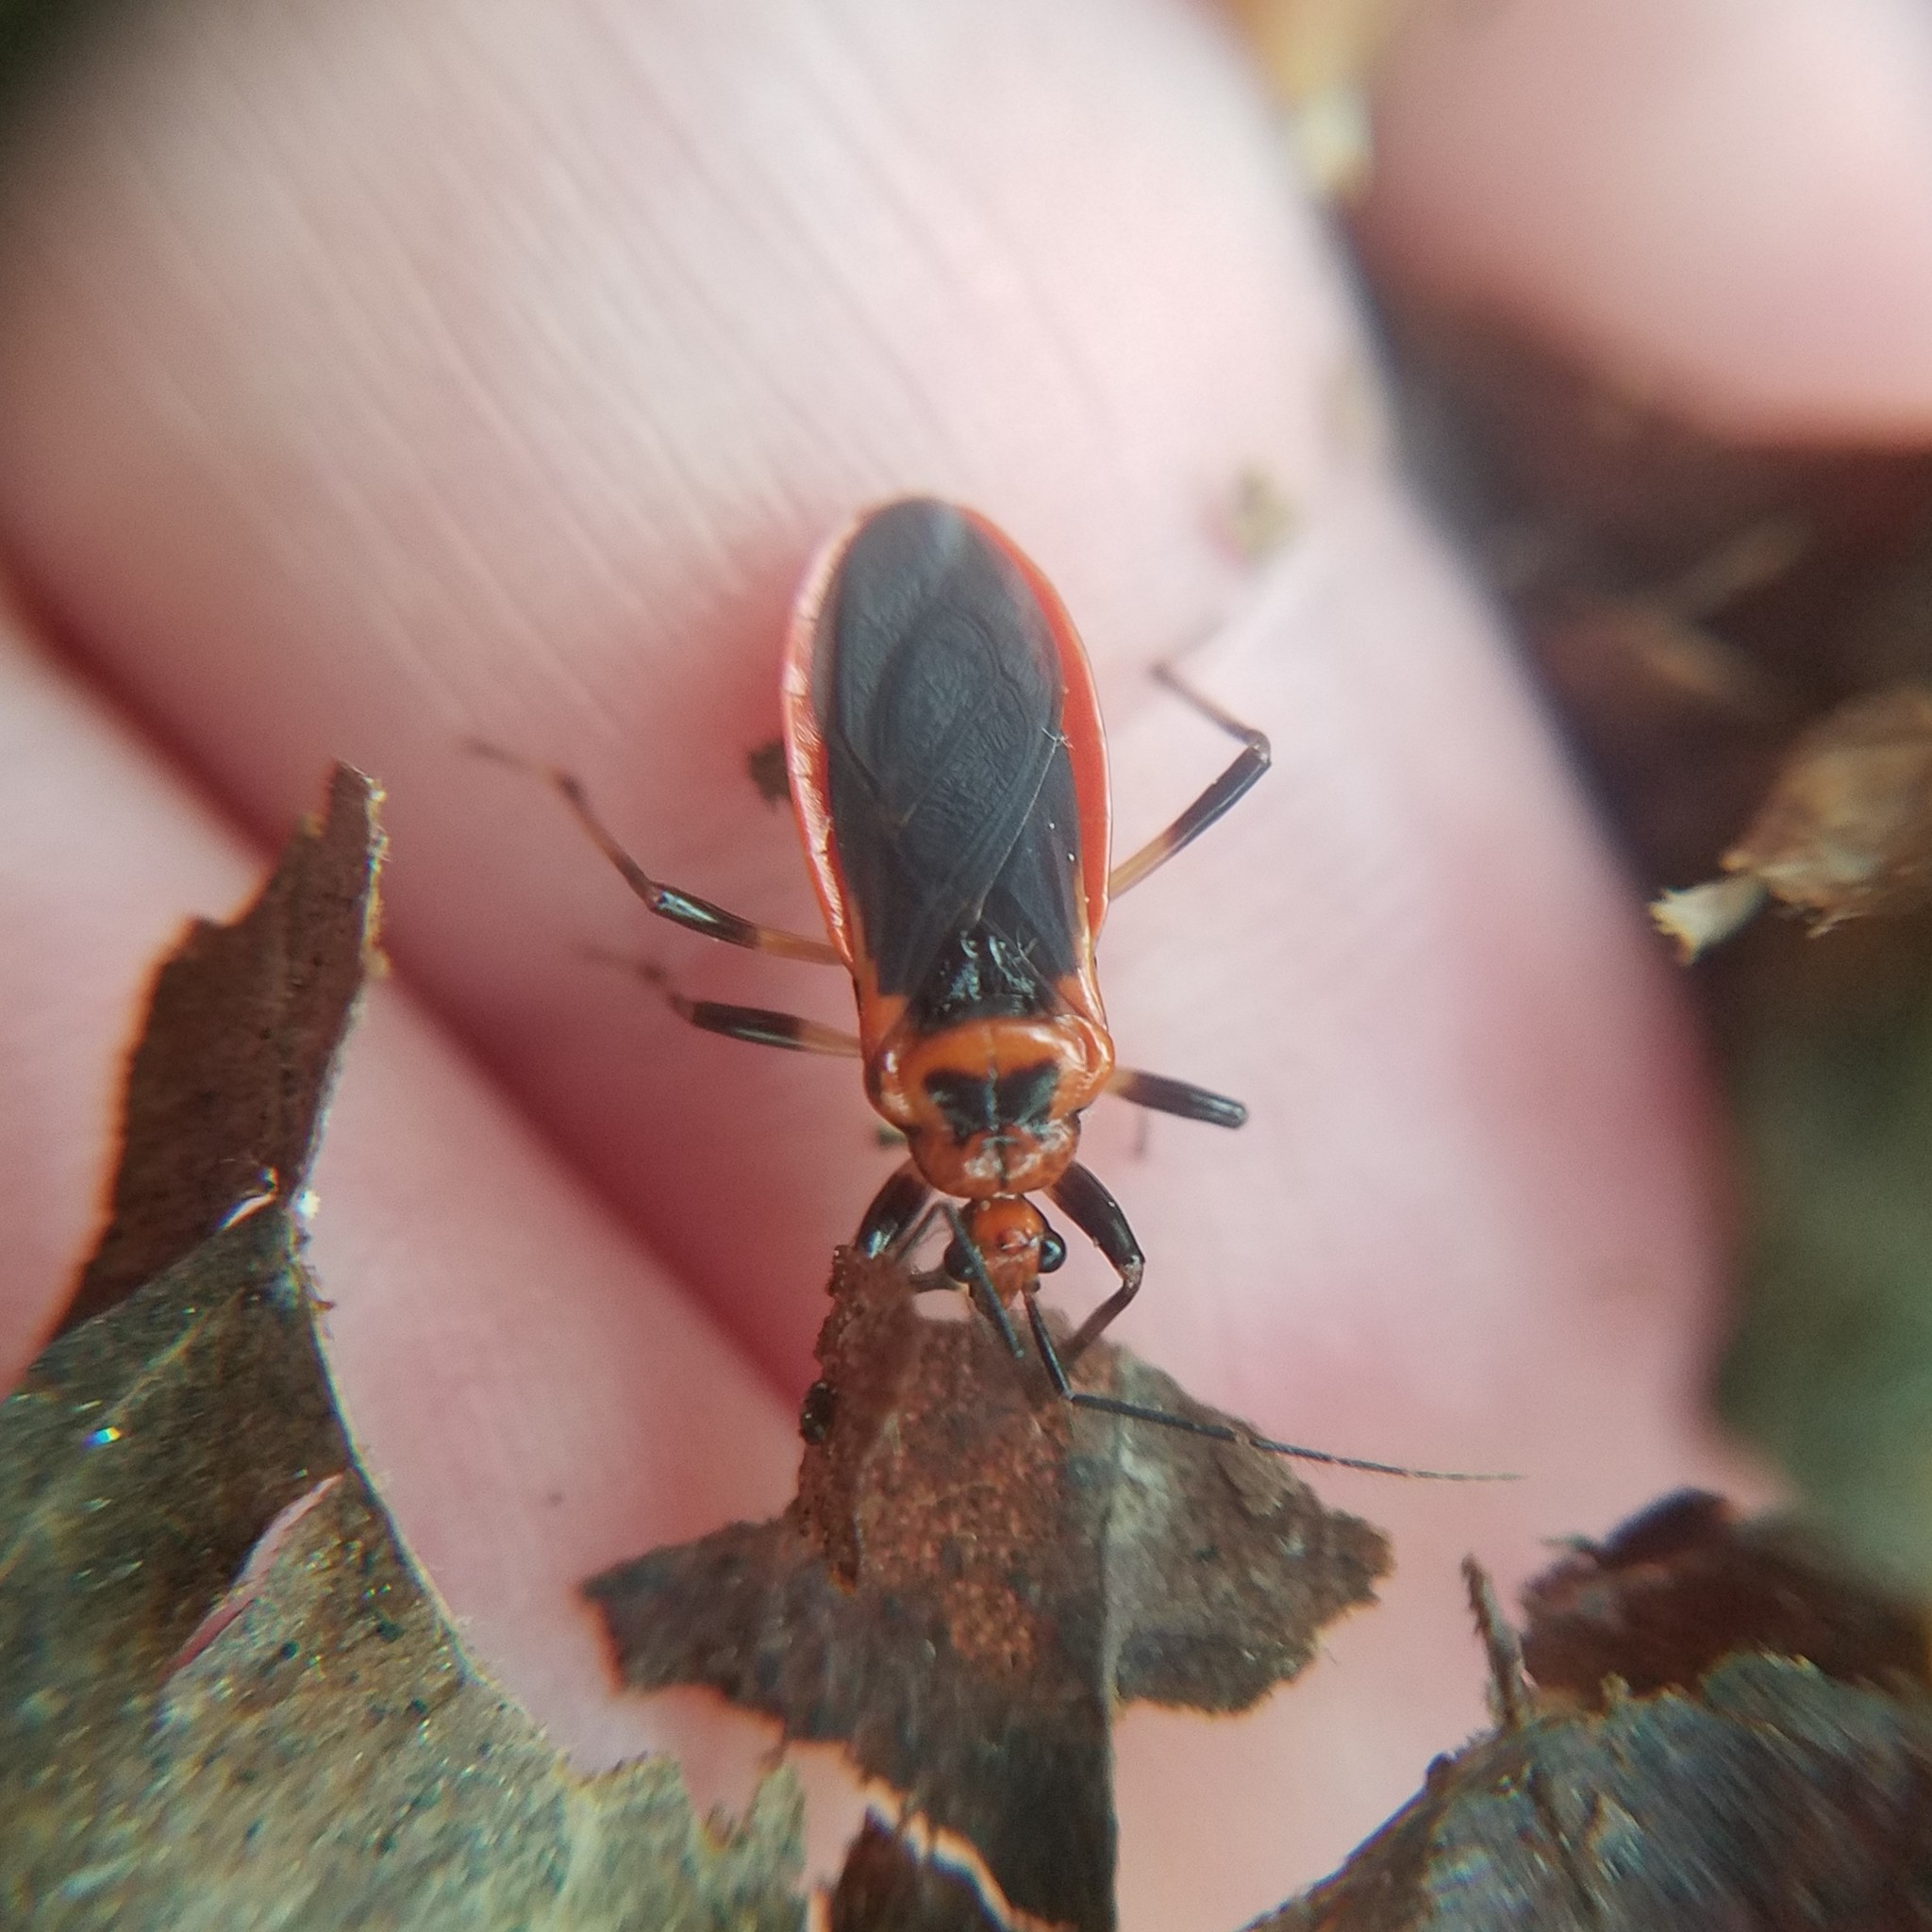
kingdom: Animalia
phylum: Arthropoda
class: Insecta
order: Hemiptera
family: Reduviidae
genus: Rhiginia
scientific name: Rhiginia cruciata
